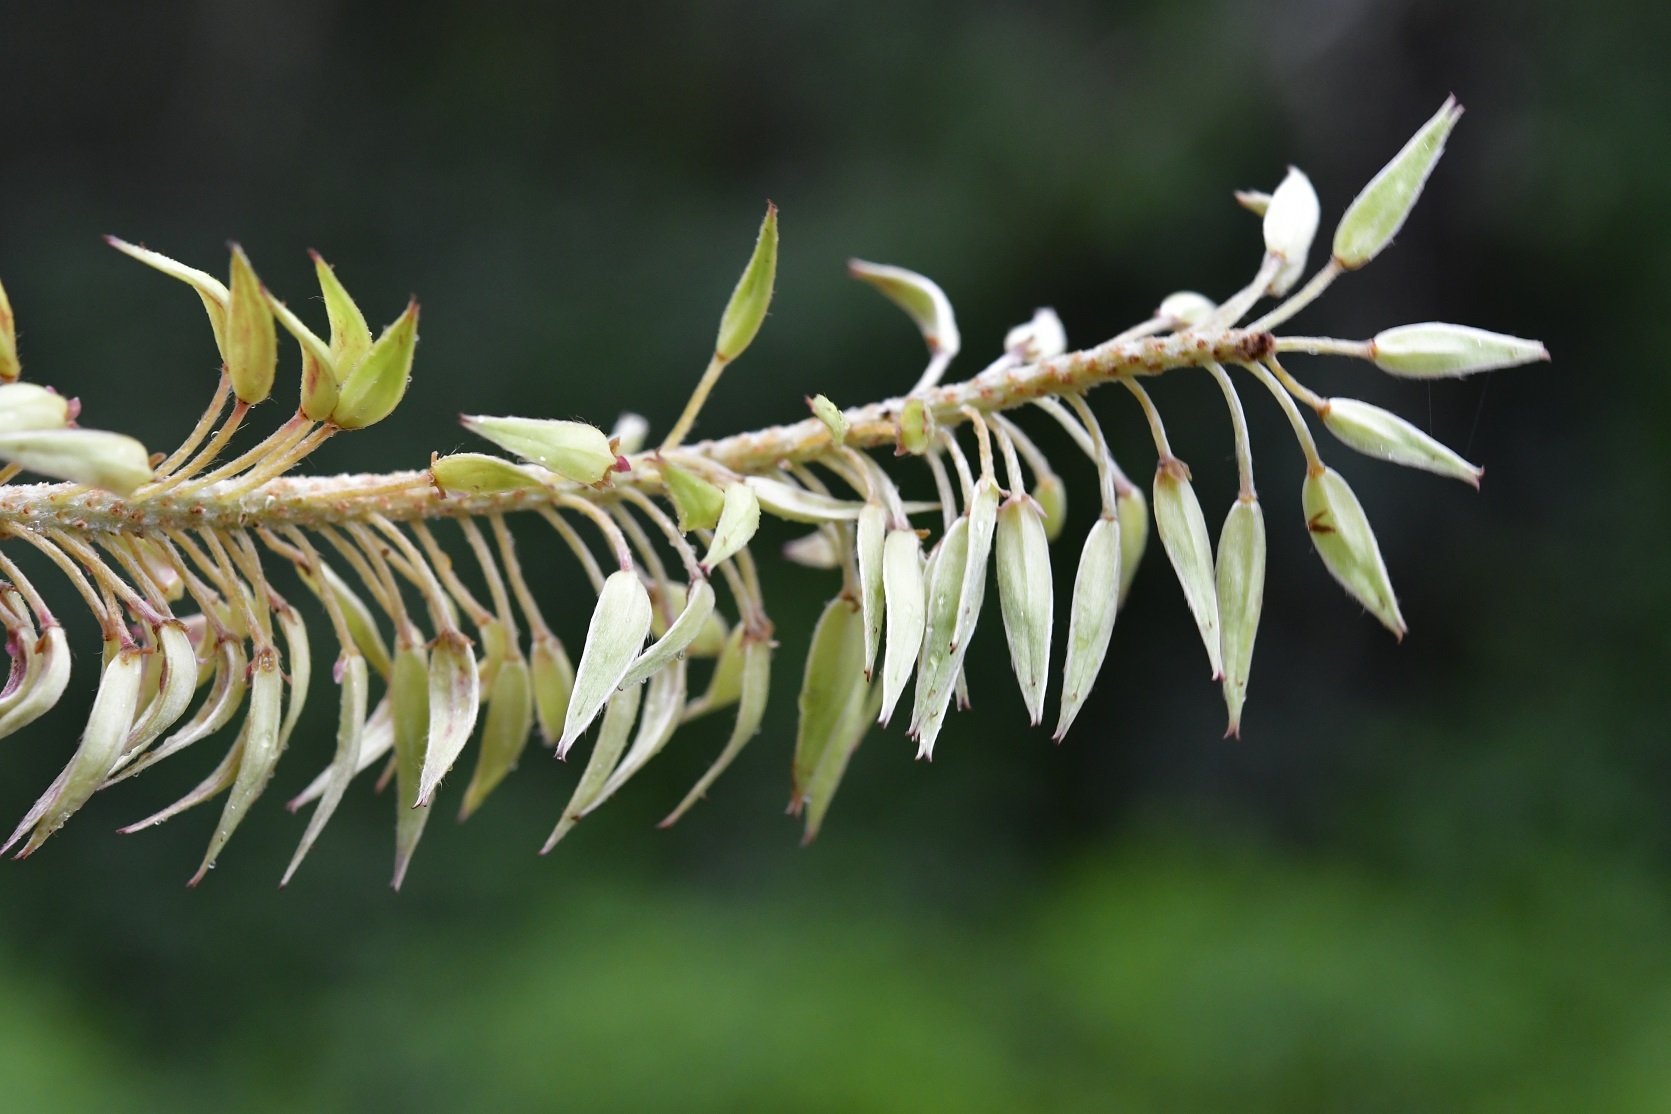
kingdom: Plantae
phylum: Tracheophyta
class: Magnoliopsida
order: Picramniales
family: Picramniaceae
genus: Alvaradoa
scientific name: Alvaradoa amorphoides
